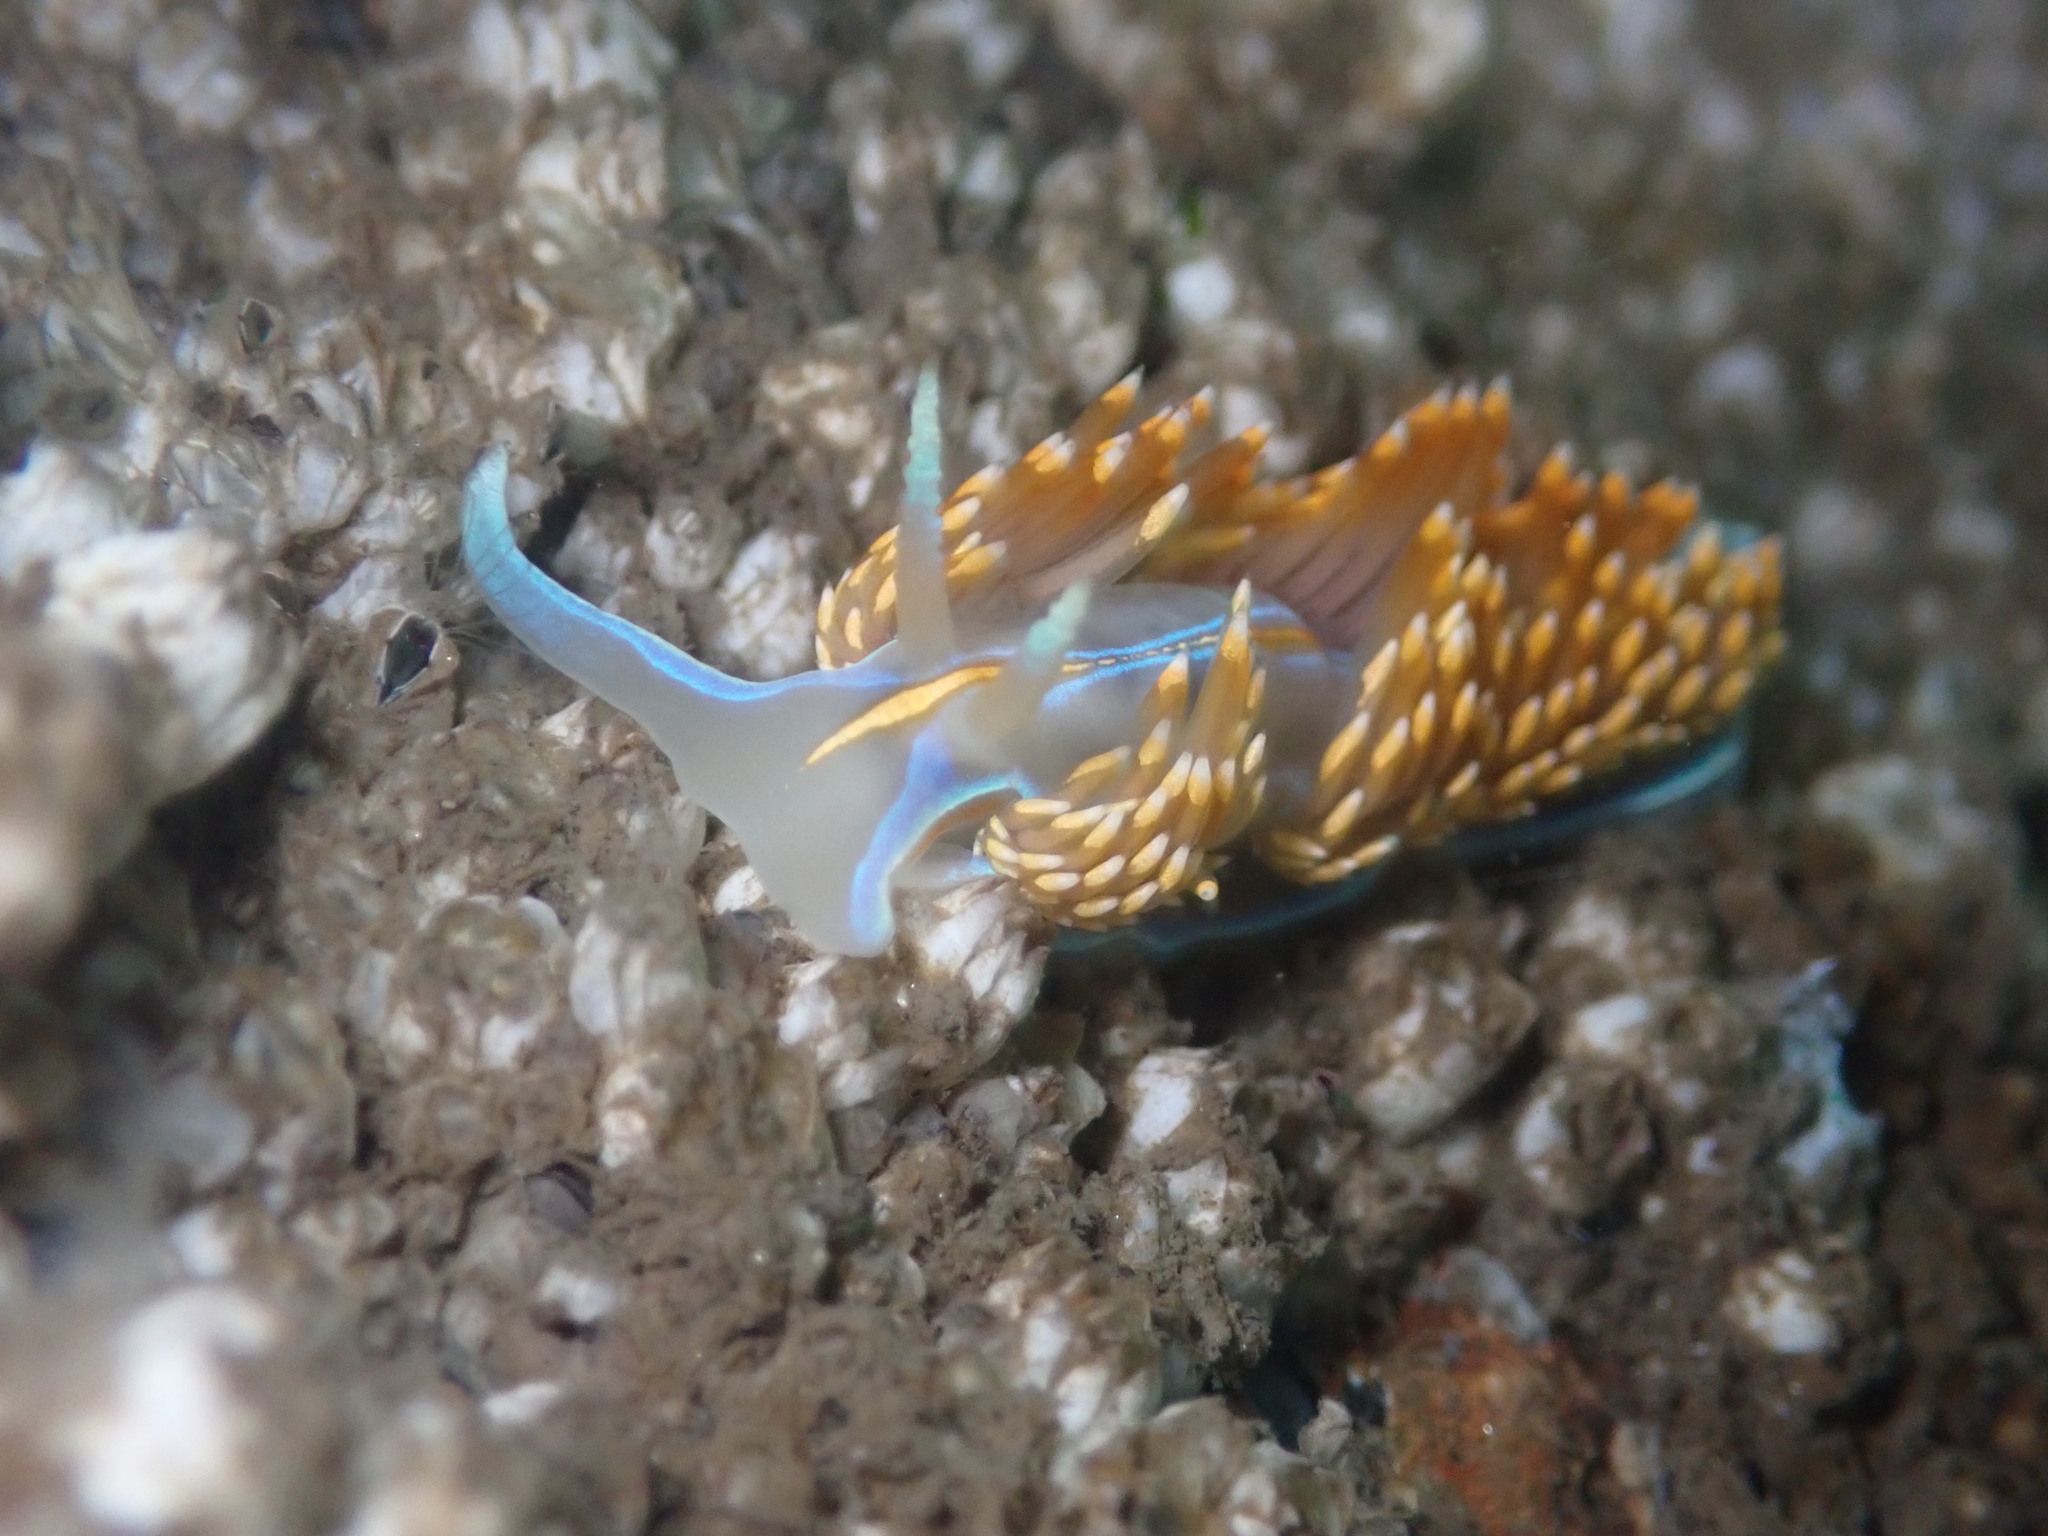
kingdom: Animalia
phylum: Mollusca
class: Gastropoda
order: Nudibranchia
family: Myrrhinidae
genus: Hermissenda
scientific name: Hermissenda opalescens
